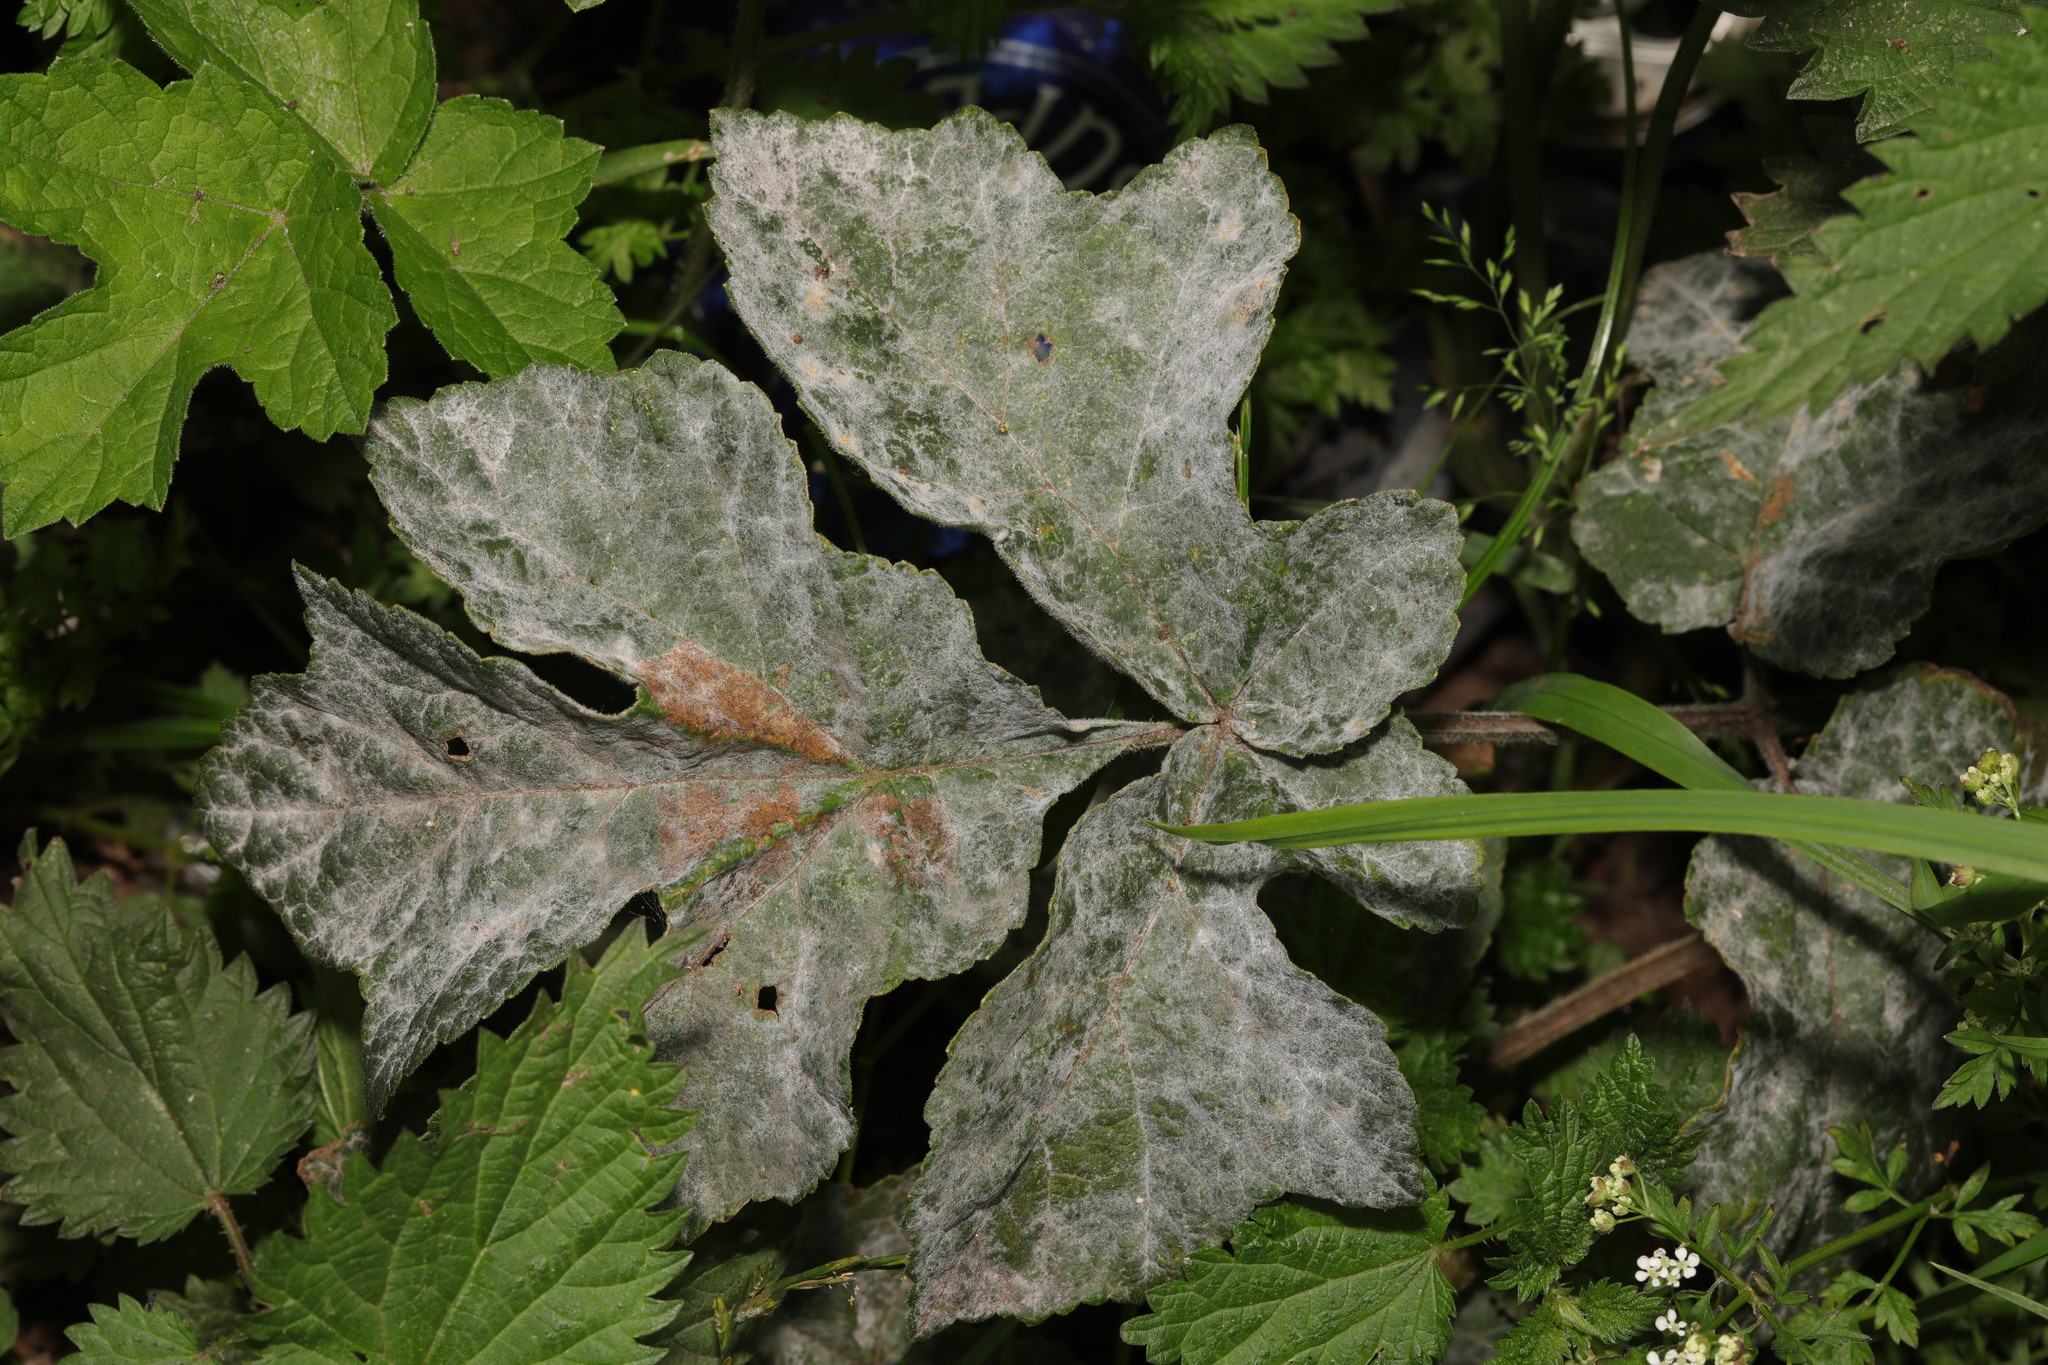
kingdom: Plantae
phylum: Tracheophyta
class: Magnoliopsida
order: Apiales
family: Apiaceae
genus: Heracleum
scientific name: Heracleum sphondylium
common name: Hogweed
